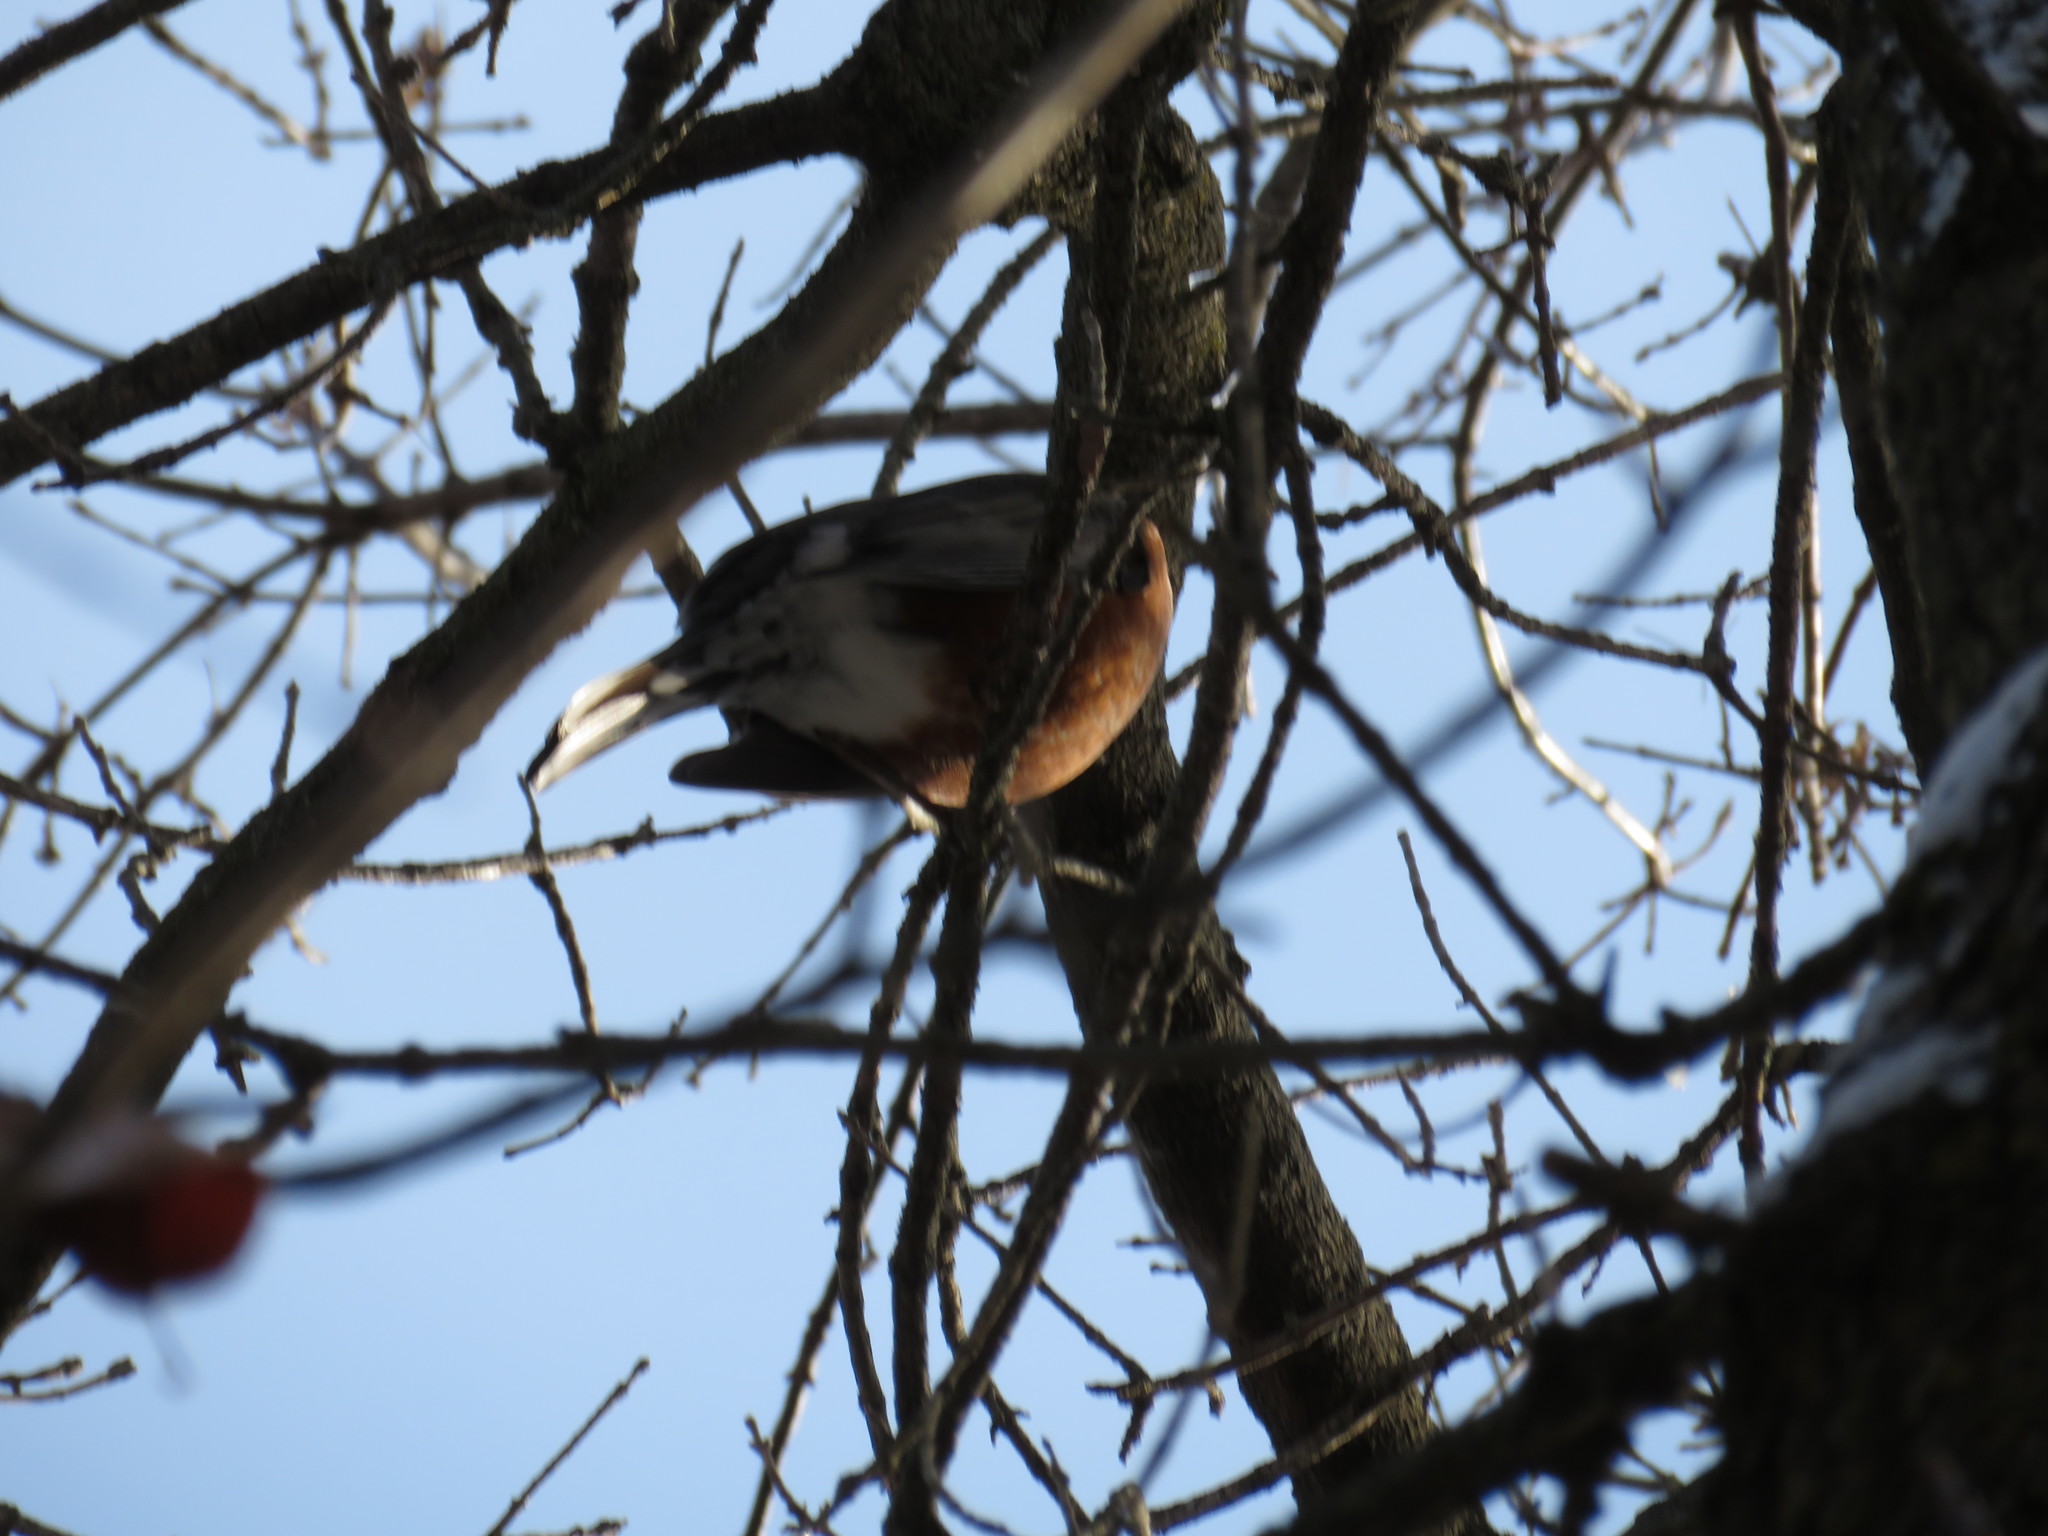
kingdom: Animalia
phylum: Chordata
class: Aves
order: Passeriformes
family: Turdidae
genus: Turdus
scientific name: Turdus migratorius
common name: American robin
